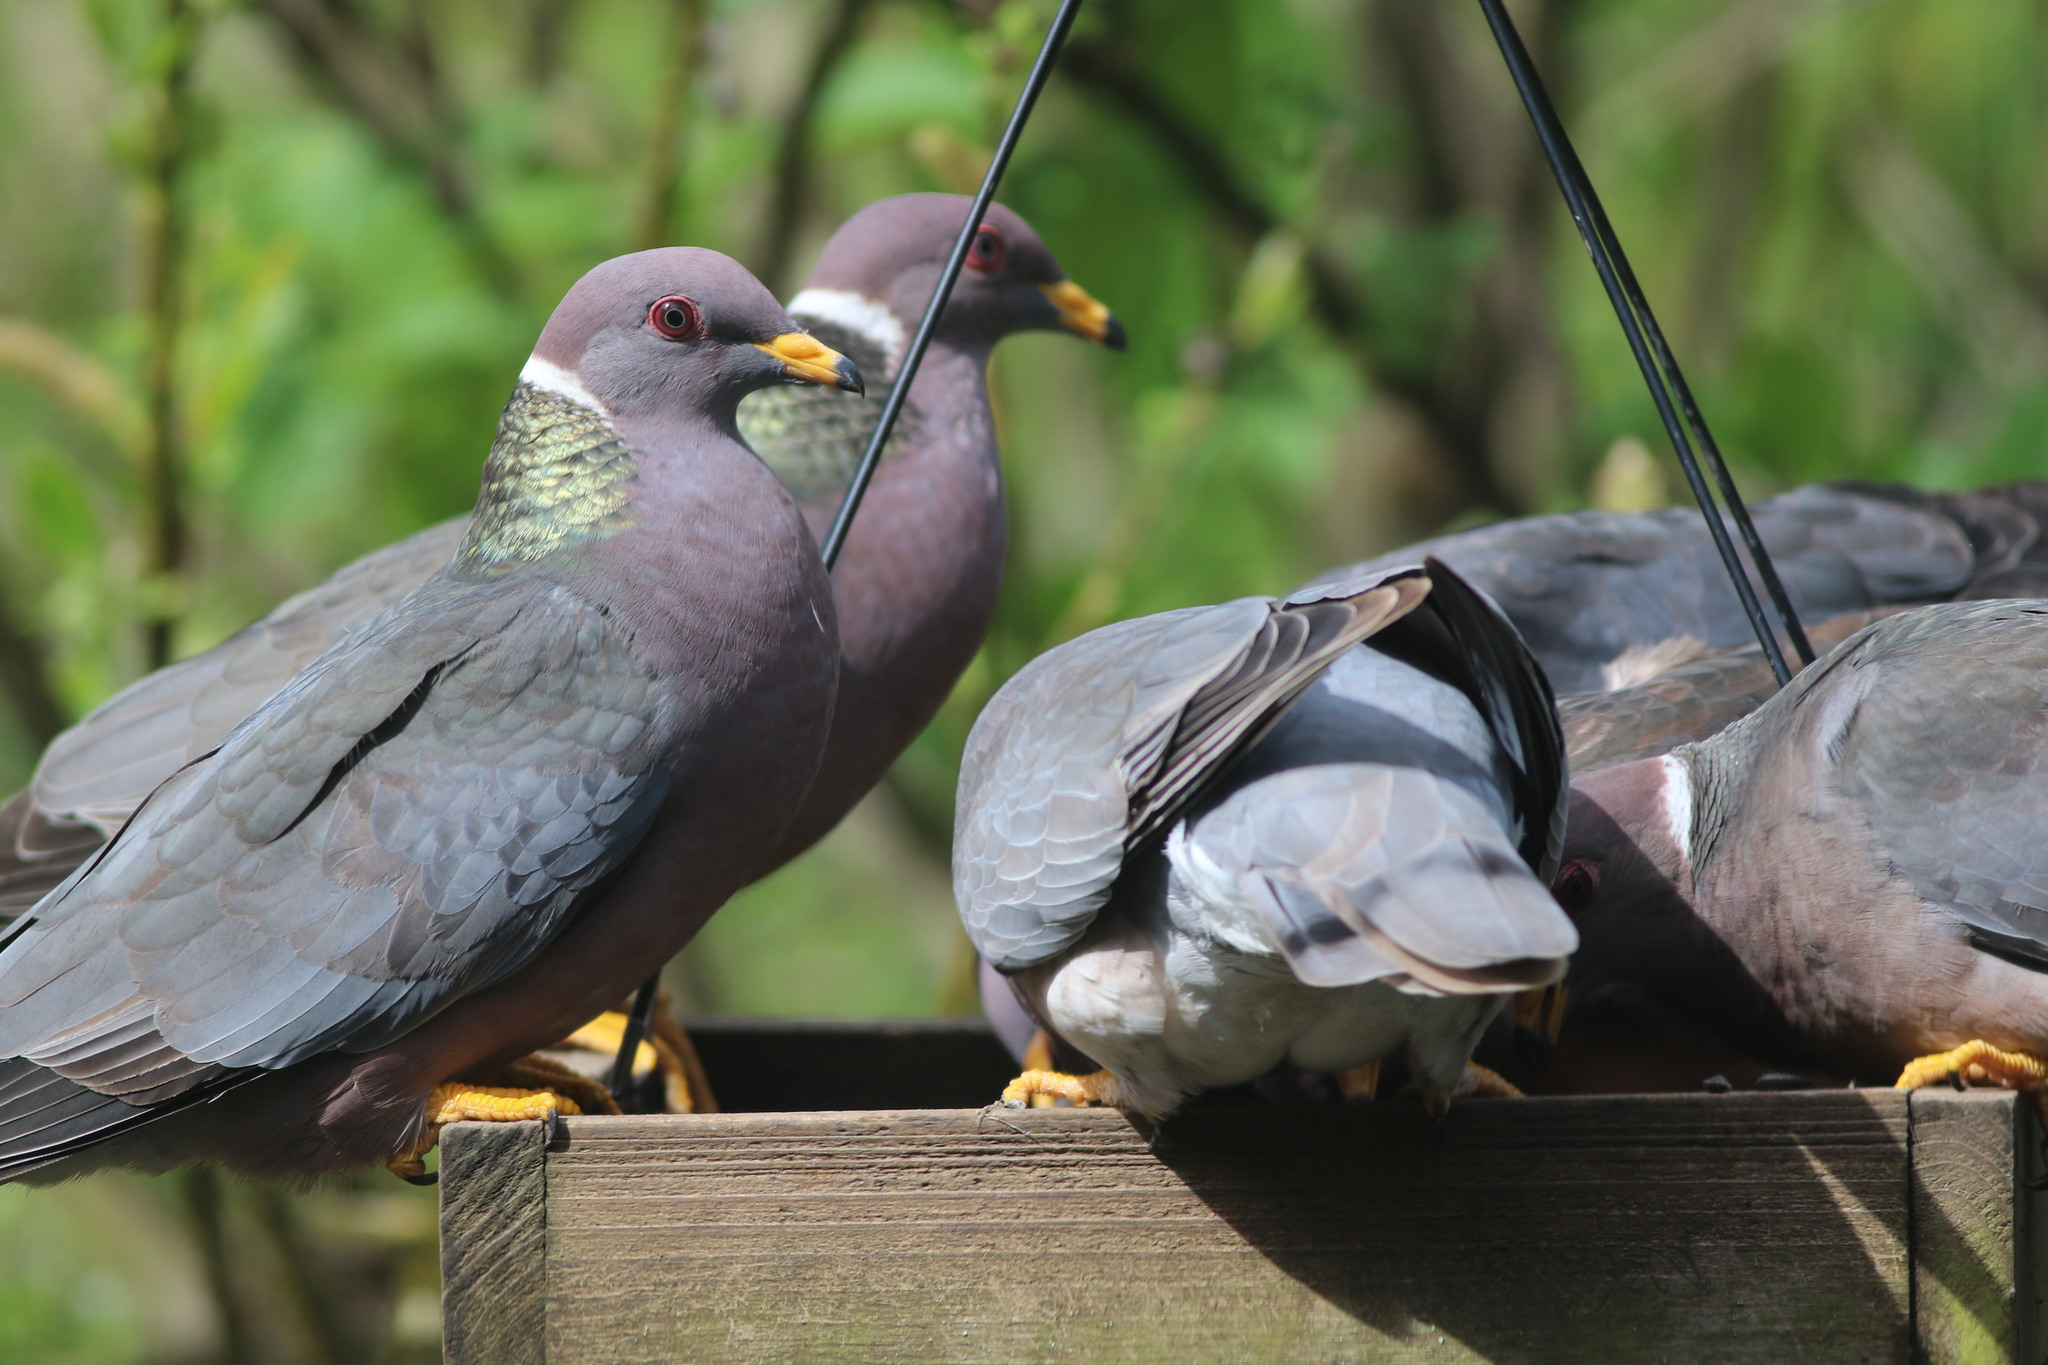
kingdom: Animalia
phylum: Chordata
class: Aves
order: Columbiformes
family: Columbidae
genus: Patagioenas
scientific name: Patagioenas fasciata
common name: Band-tailed pigeon
